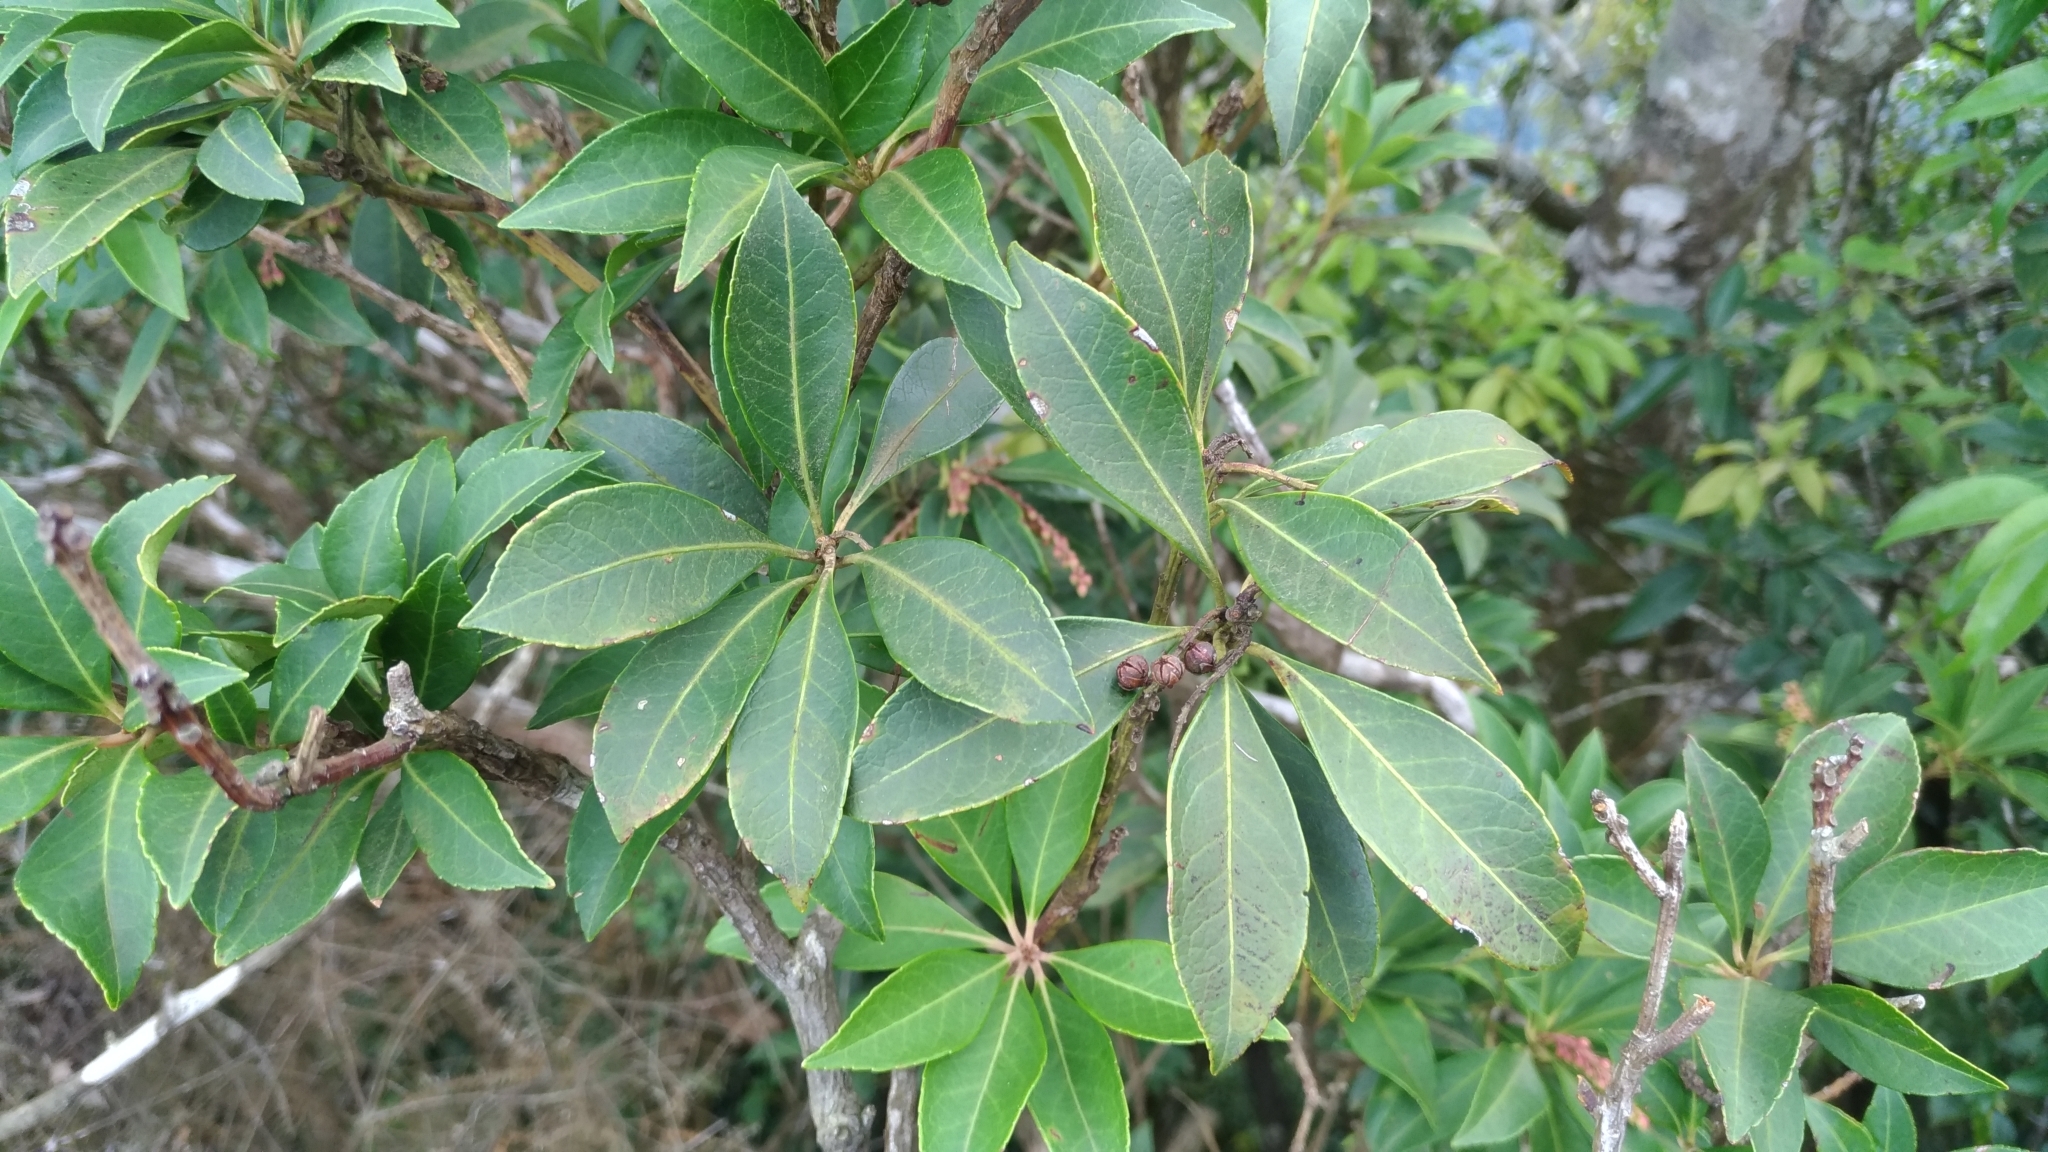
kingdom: Plantae
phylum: Tracheophyta
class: Magnoliopsida
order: Ericales
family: Ericaceae
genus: Pieris
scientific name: Pieris japonica
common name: Japanese pieris
